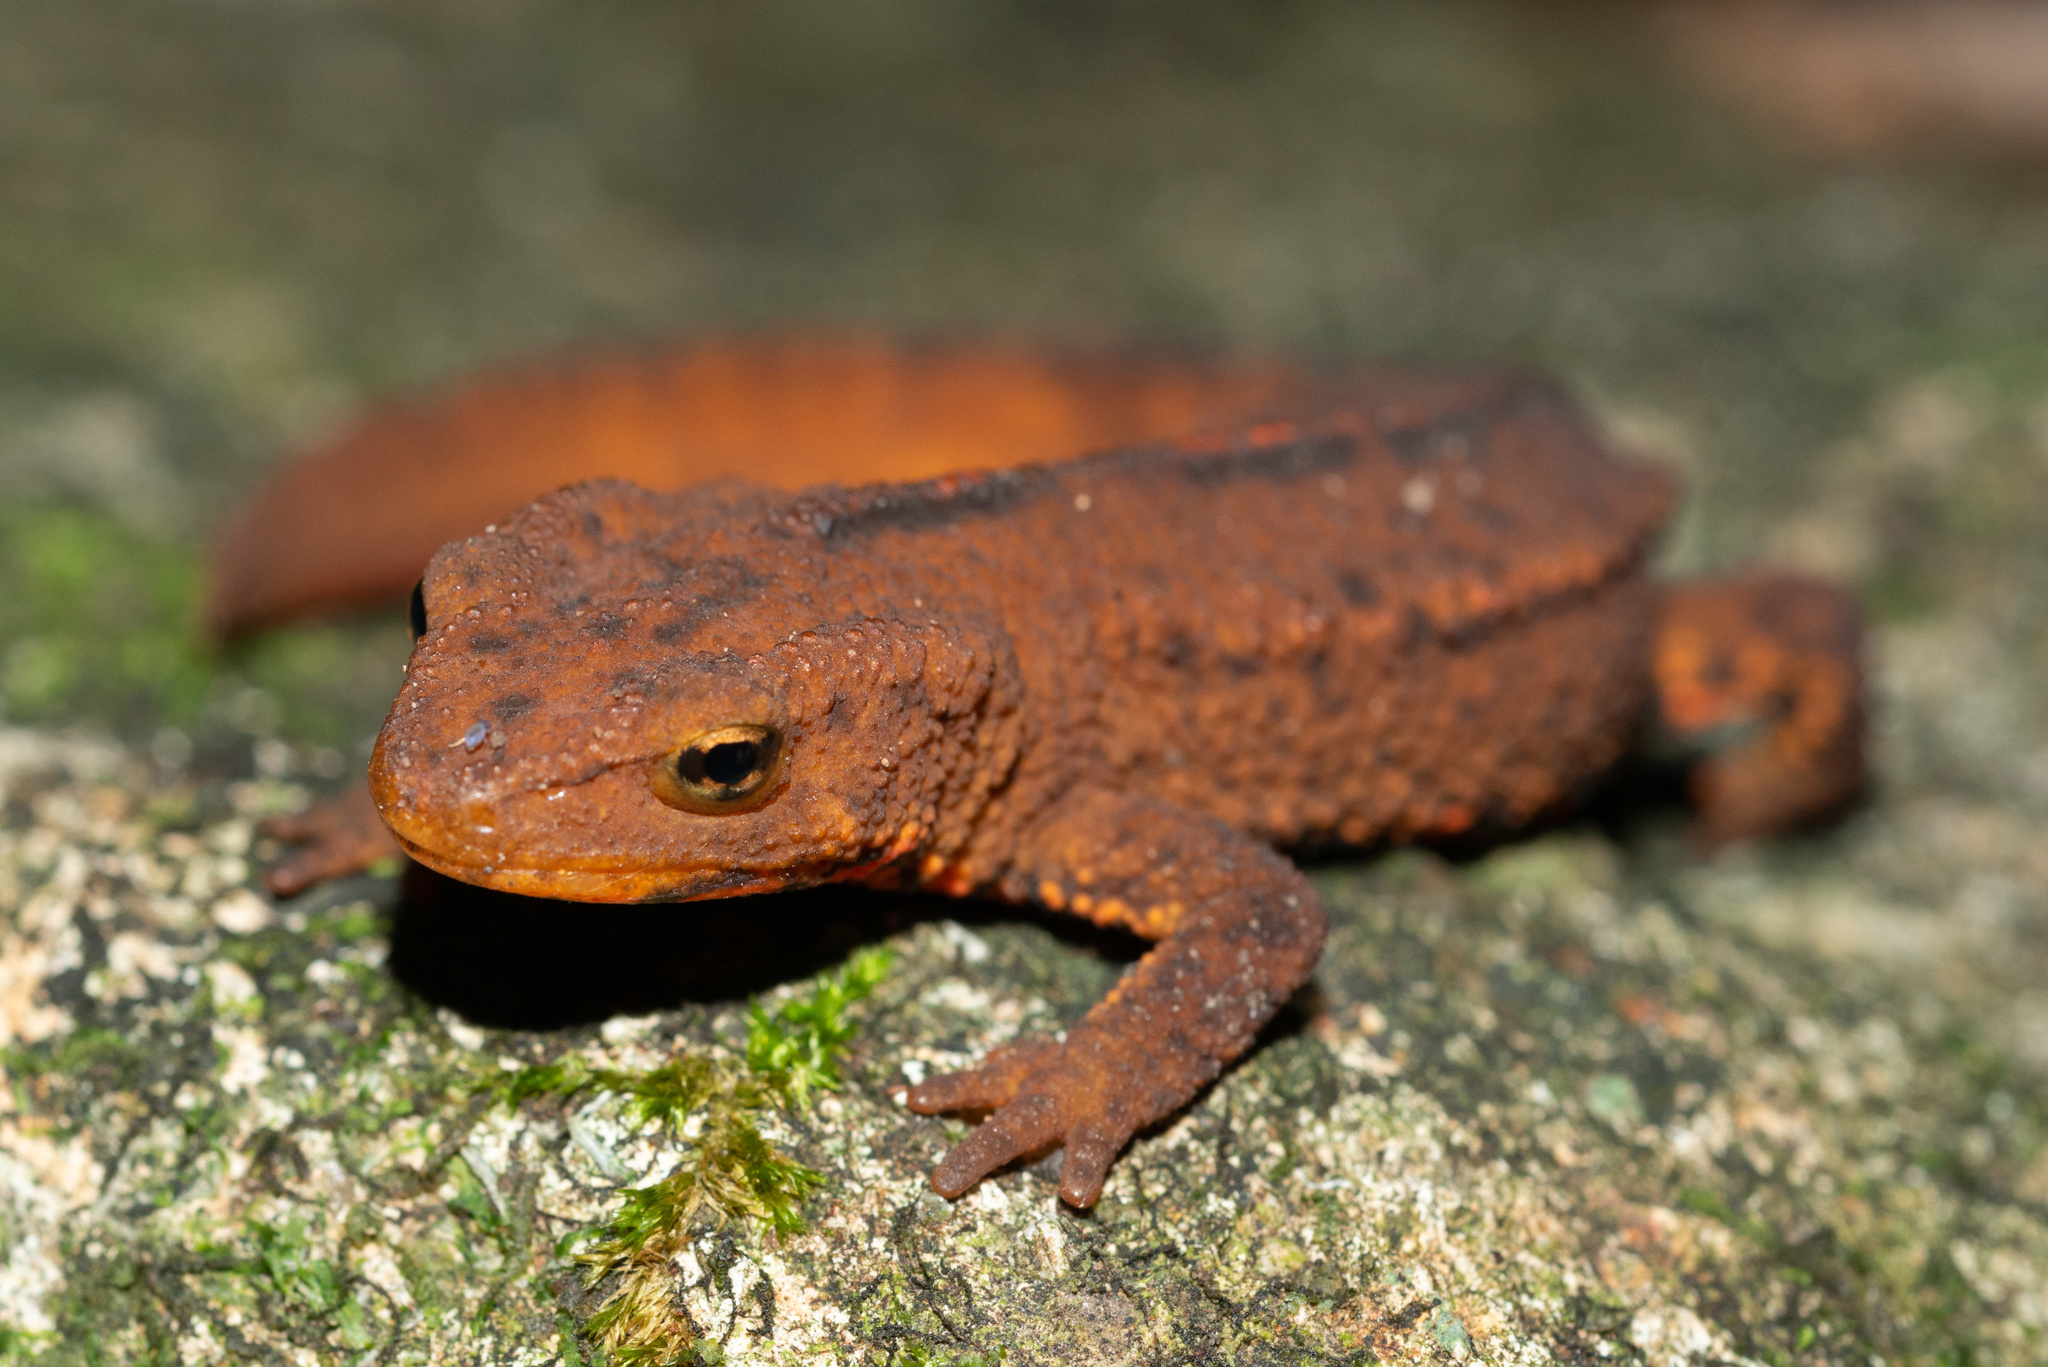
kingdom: Animalia
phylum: Chordata
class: Amphibia
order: Caudata
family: Salamandridae
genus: Paramesotriton
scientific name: Paramesotriton hongkongensis
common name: Hong kong warty newt
